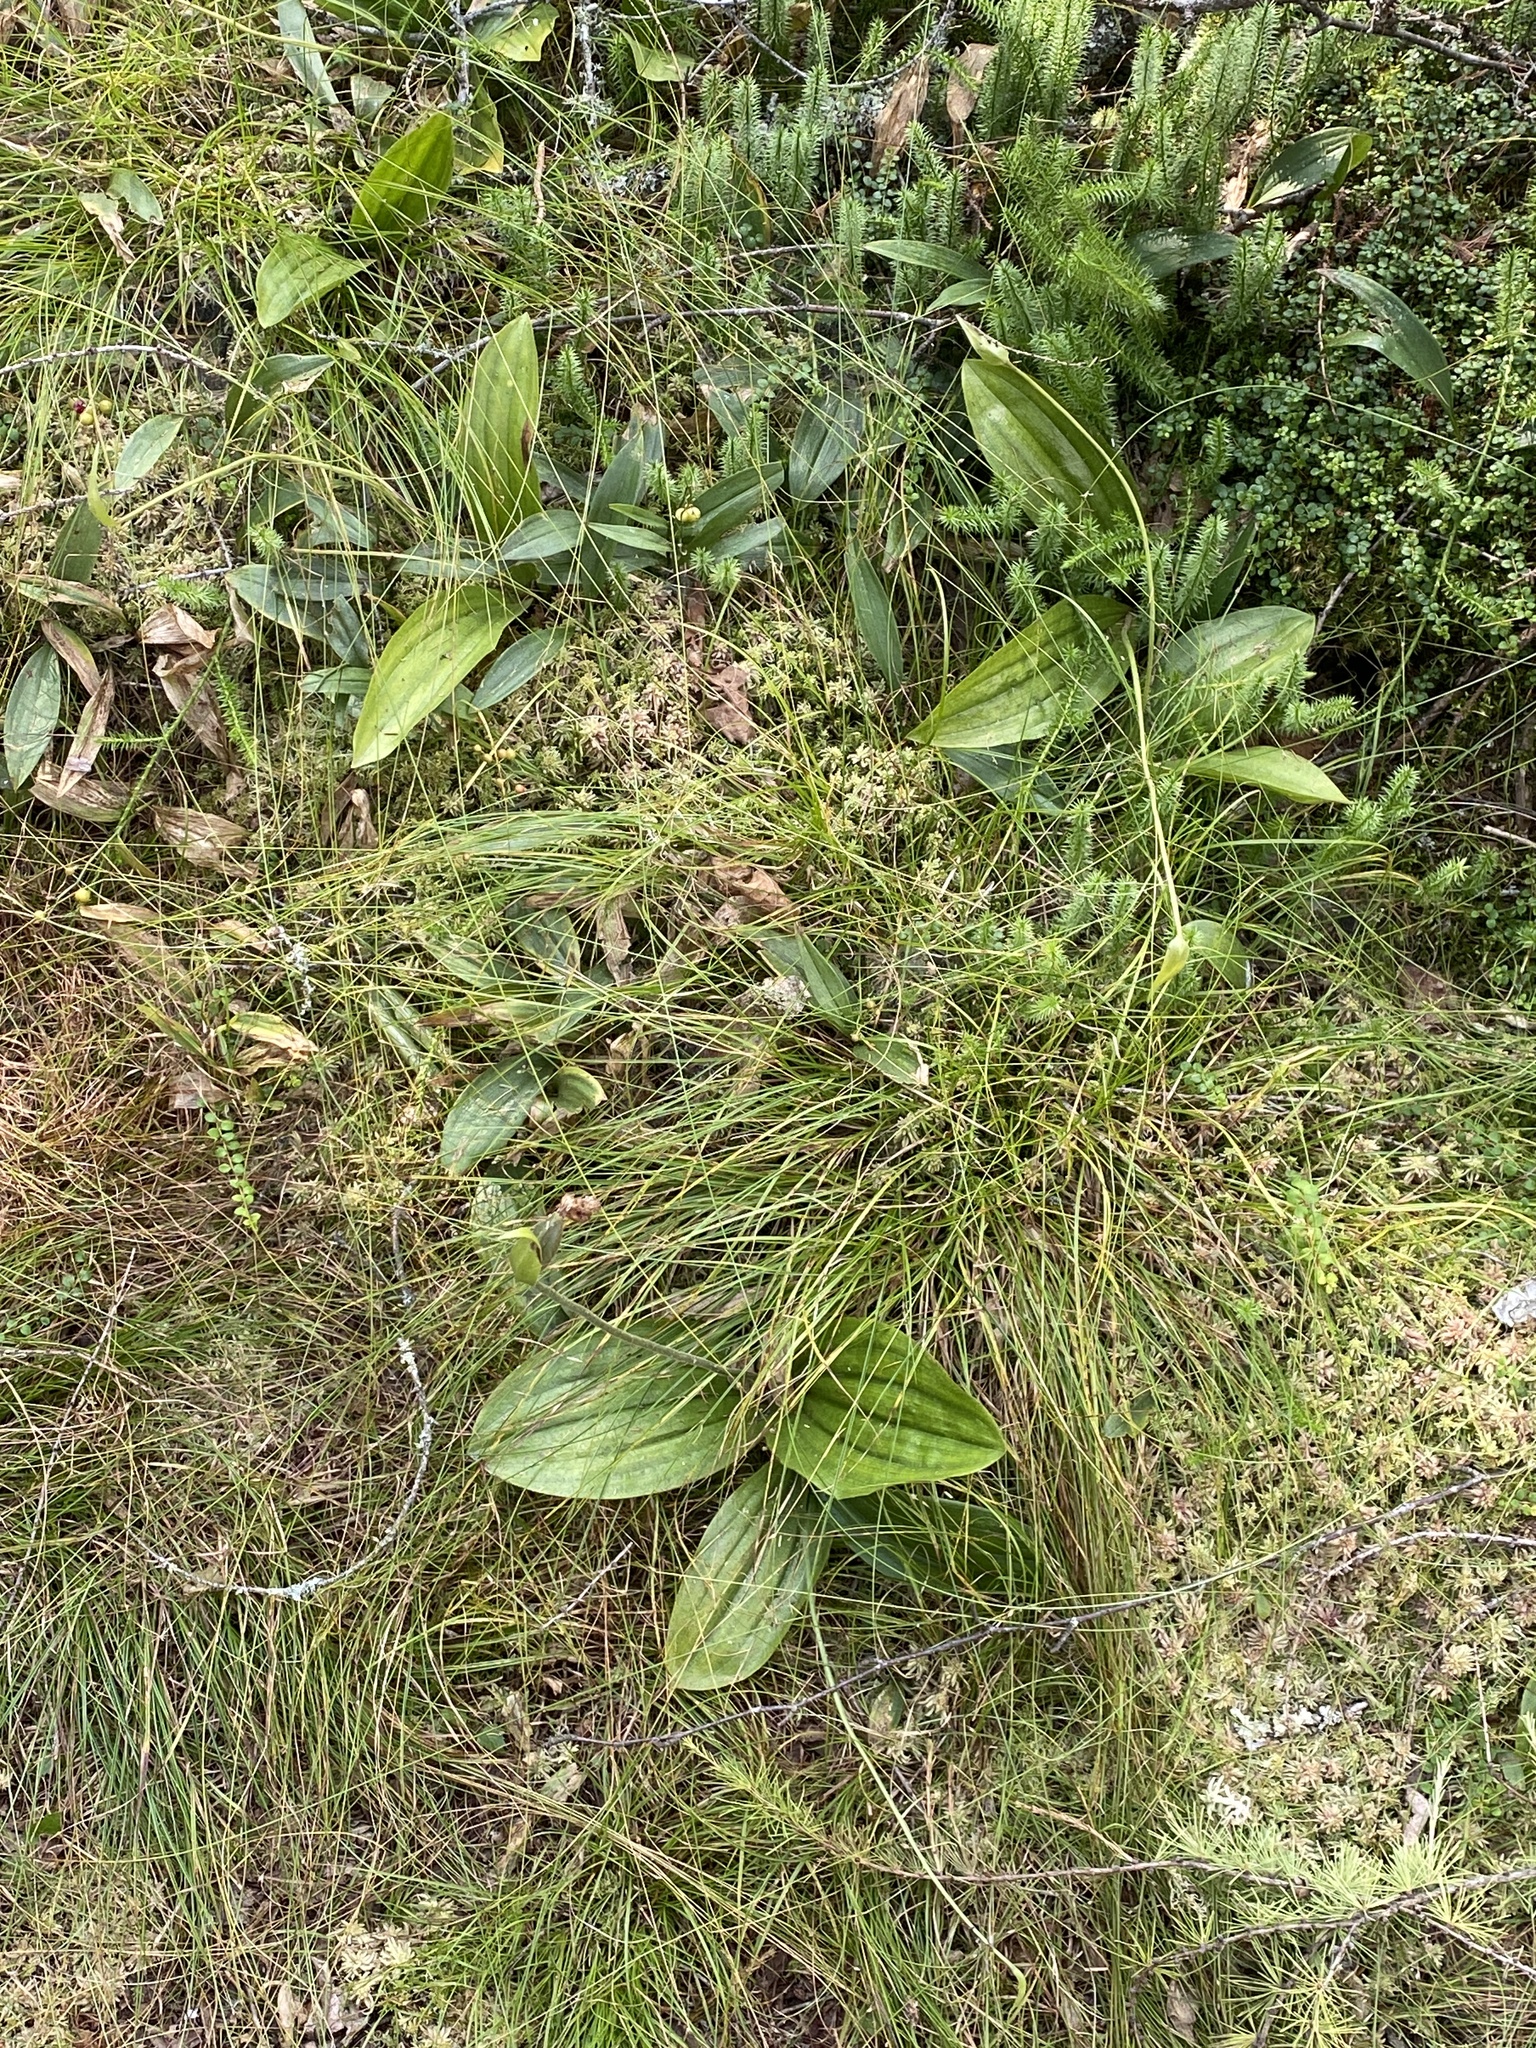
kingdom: Plantae
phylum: Tracheophyta
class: Liliopsida
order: Asparagales
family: Orchidaceae
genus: Cypripedium
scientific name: Cypripedium acaule
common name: Pink lady's-slipper
